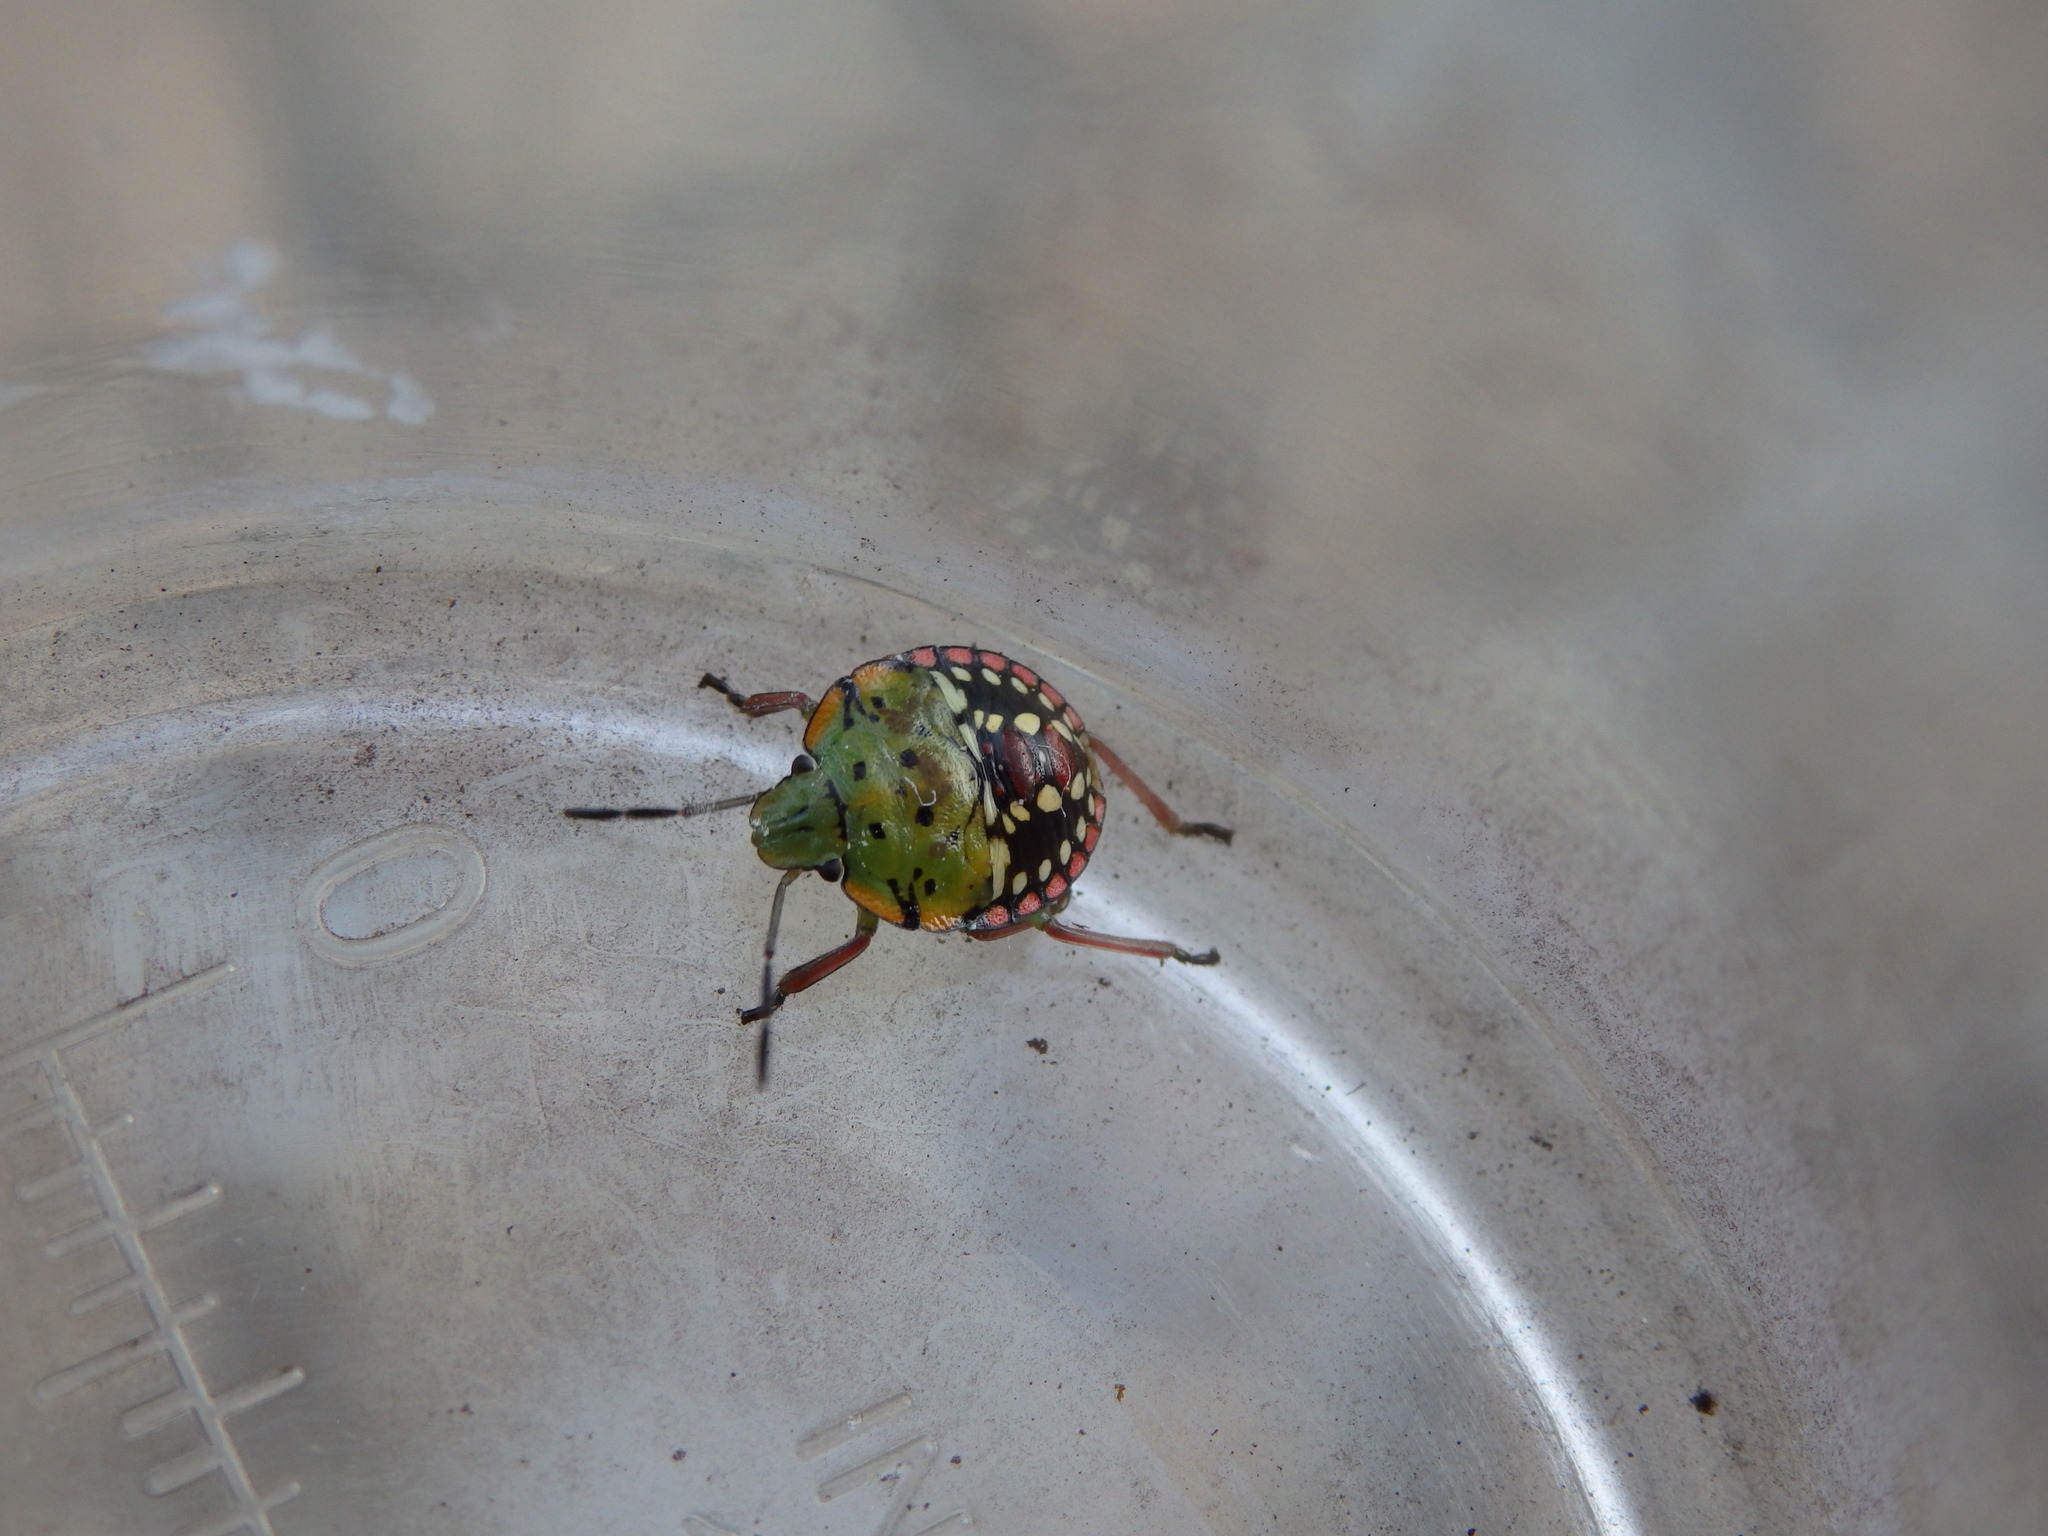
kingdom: Animalia
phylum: Arthropoda
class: Insecta
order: Hemiptera
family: Pentatomidae
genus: Nezara
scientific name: Nezara viridula
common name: Southern green stink bug
